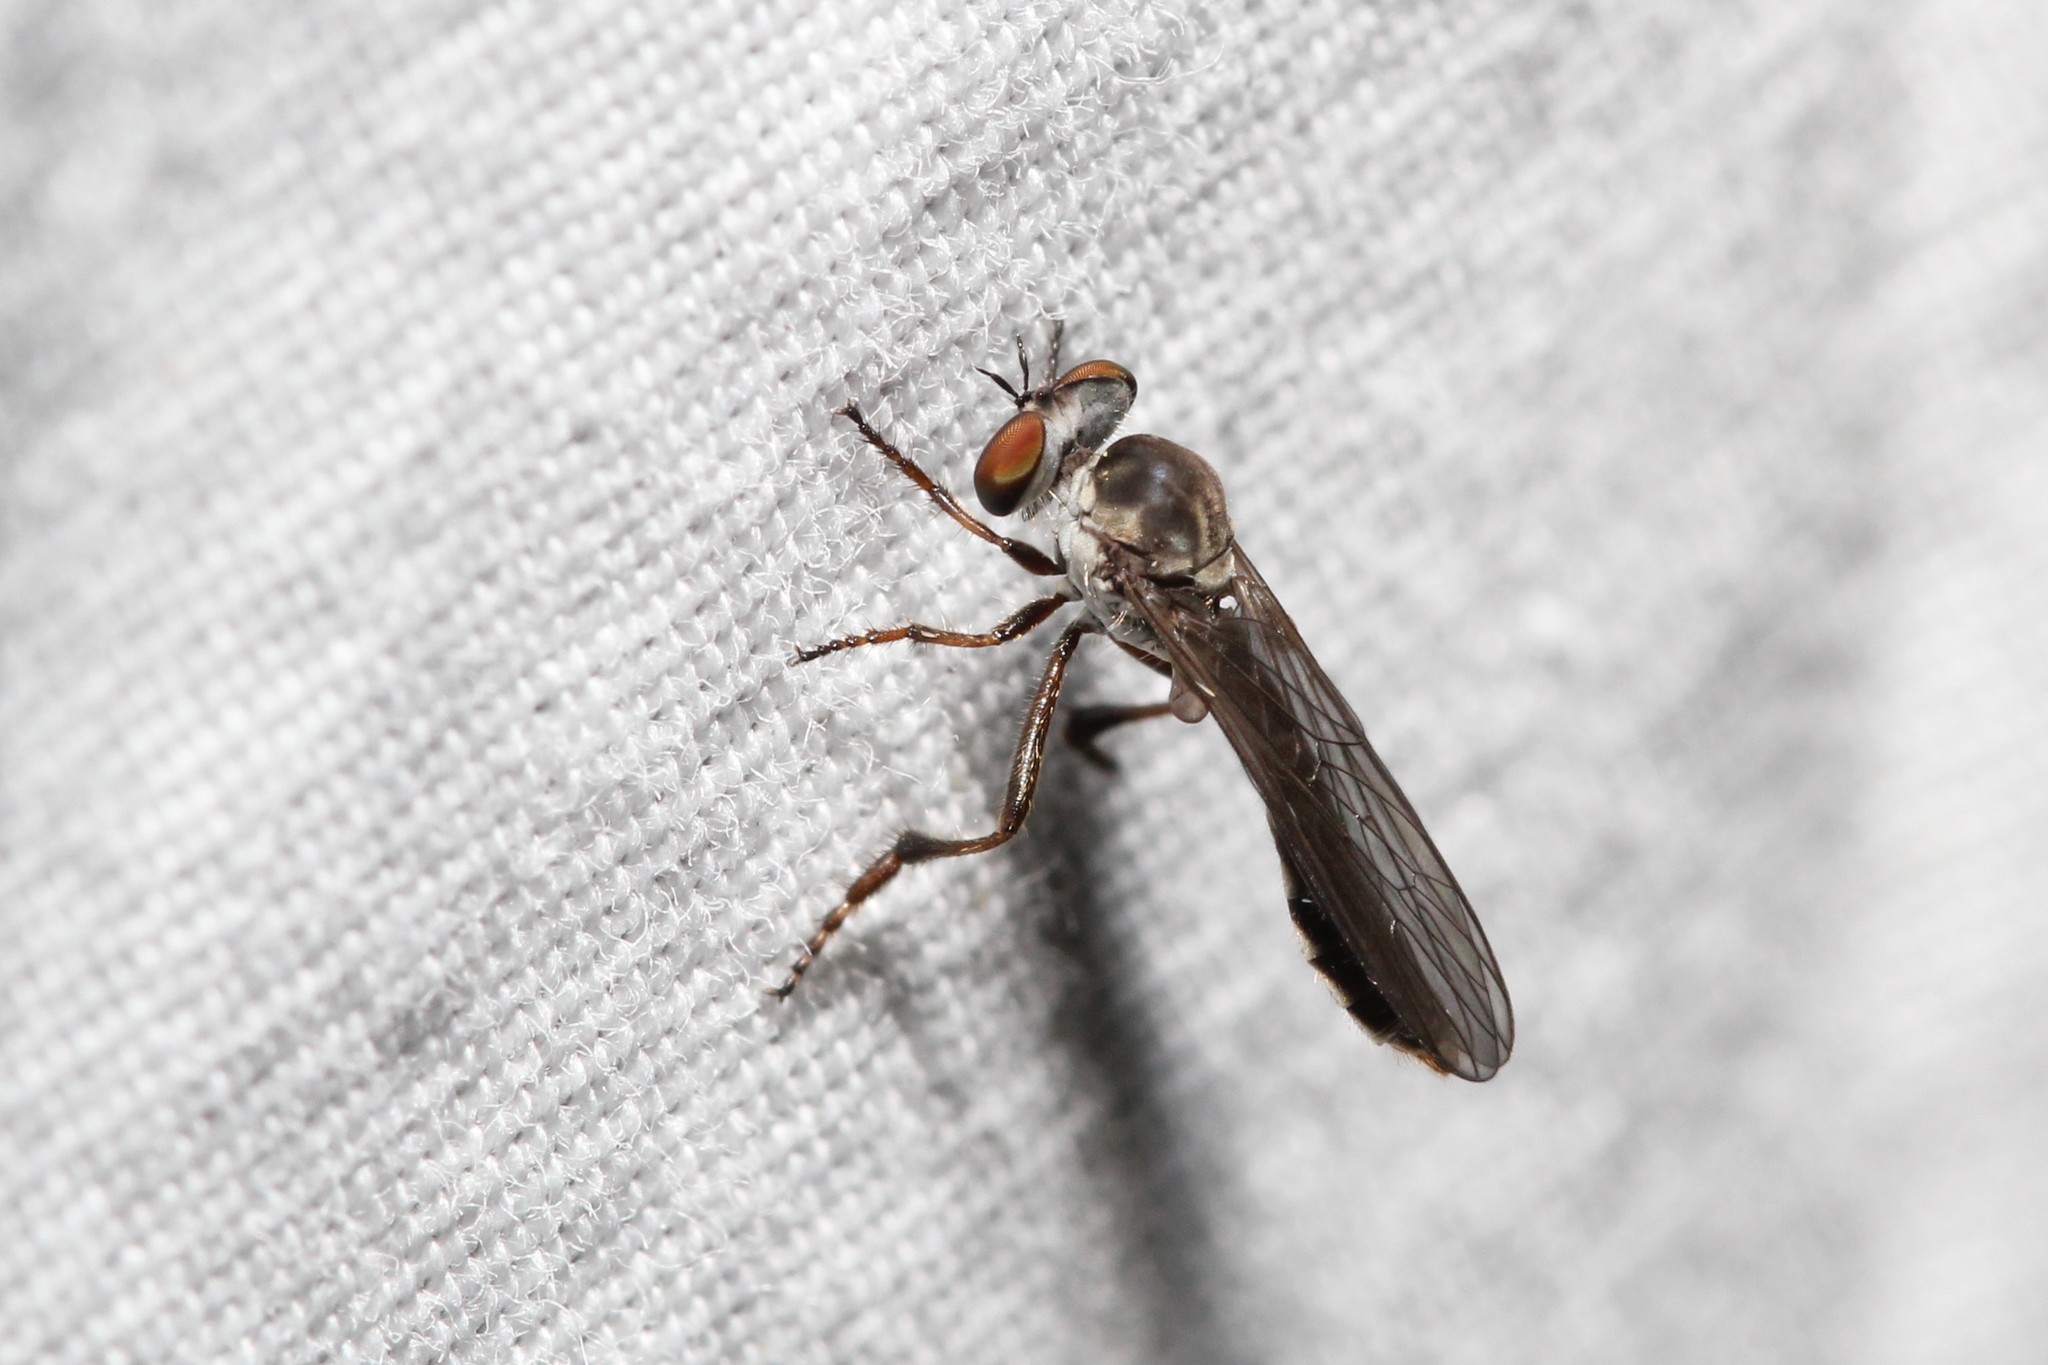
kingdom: Animalia
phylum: Arthropoda
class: Insecta
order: Diptera
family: Asilidae
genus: Holcocephala
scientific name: Holcocephala calva
